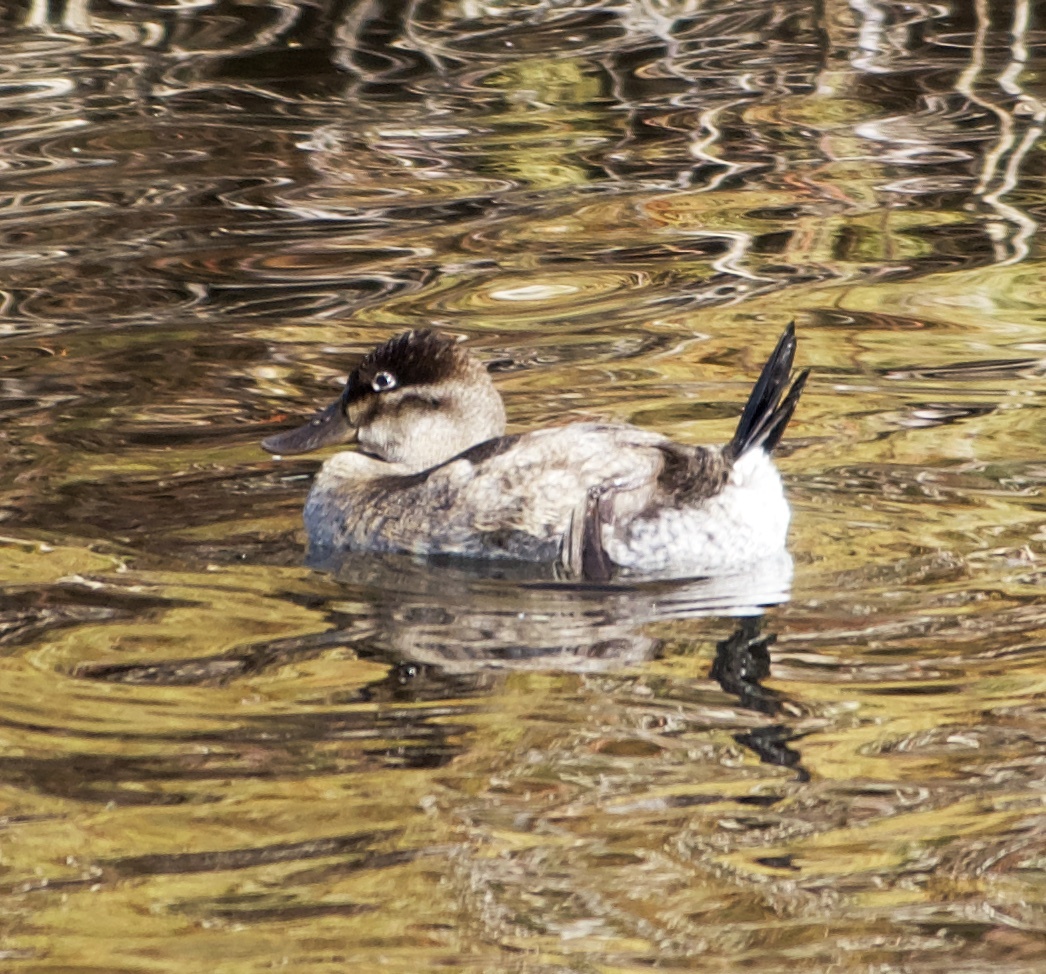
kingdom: Animalia
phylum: Chordata
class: Aves
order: Anseriformes
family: Anatidae
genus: Oxyura
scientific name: Oxyura jamaicensis
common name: Ruddy duck
